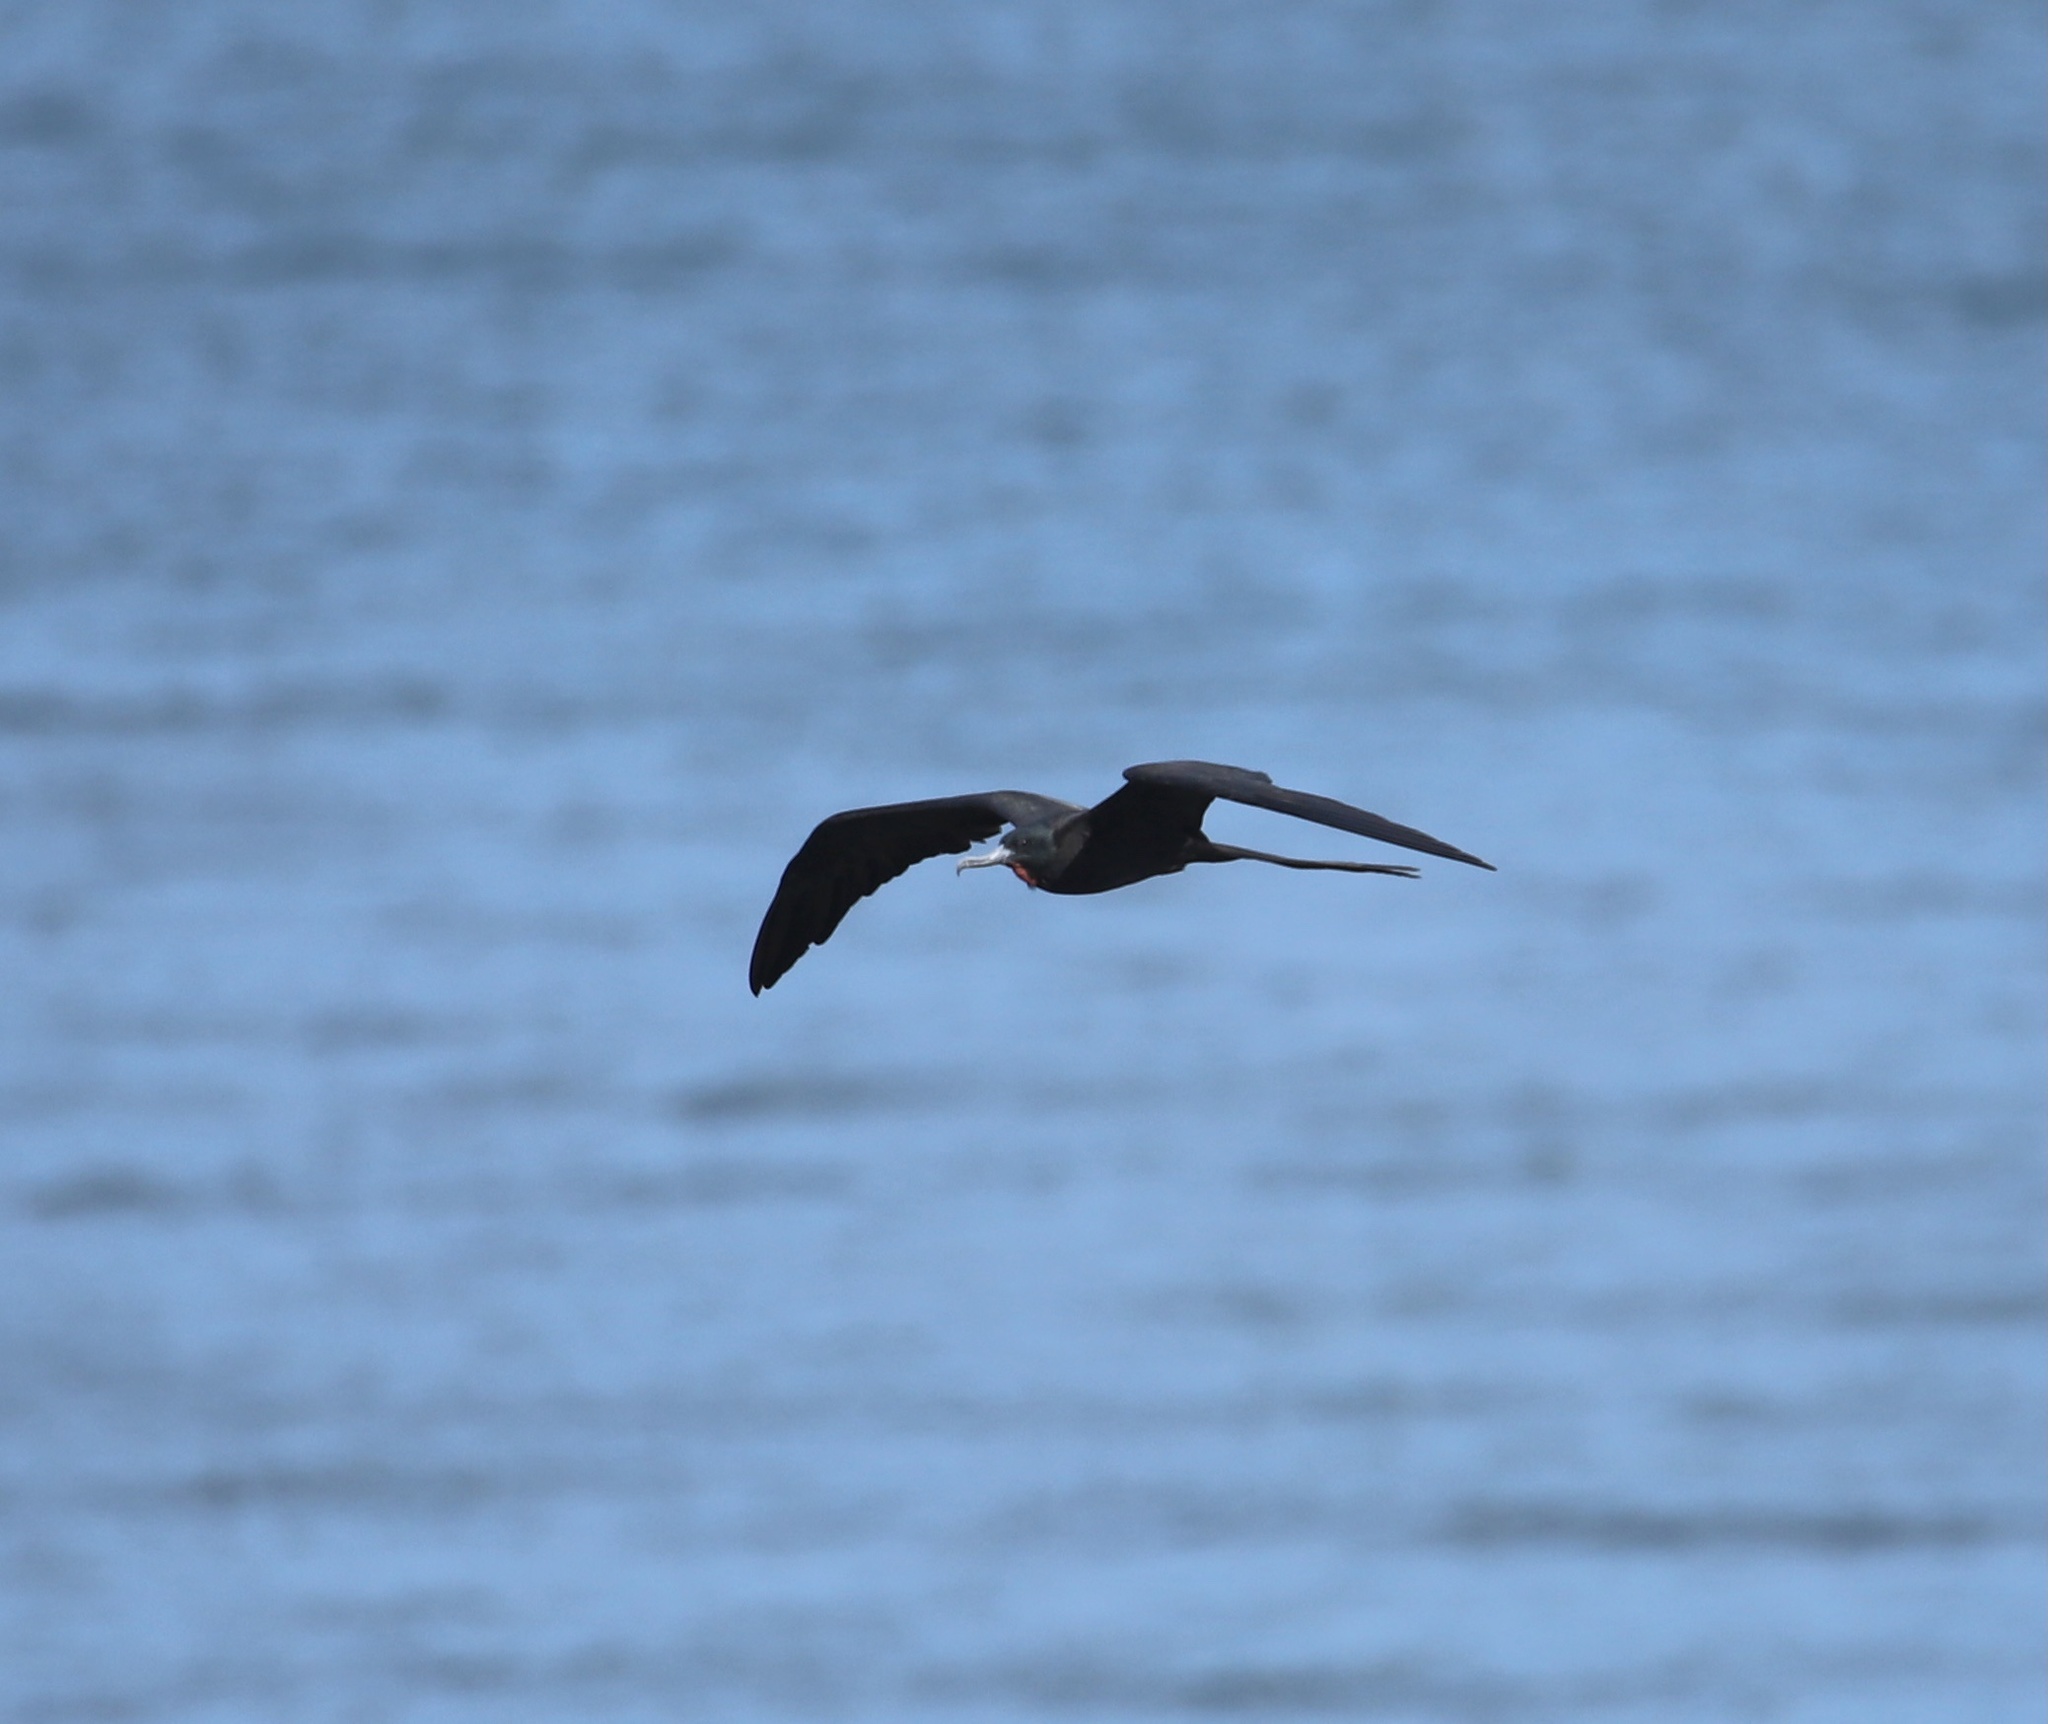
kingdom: Animalia
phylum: Chordata
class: Aves
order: Suliformes
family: Fregatidae
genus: Fregata
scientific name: Fregata magnificens
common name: Magnificent frigatebird
